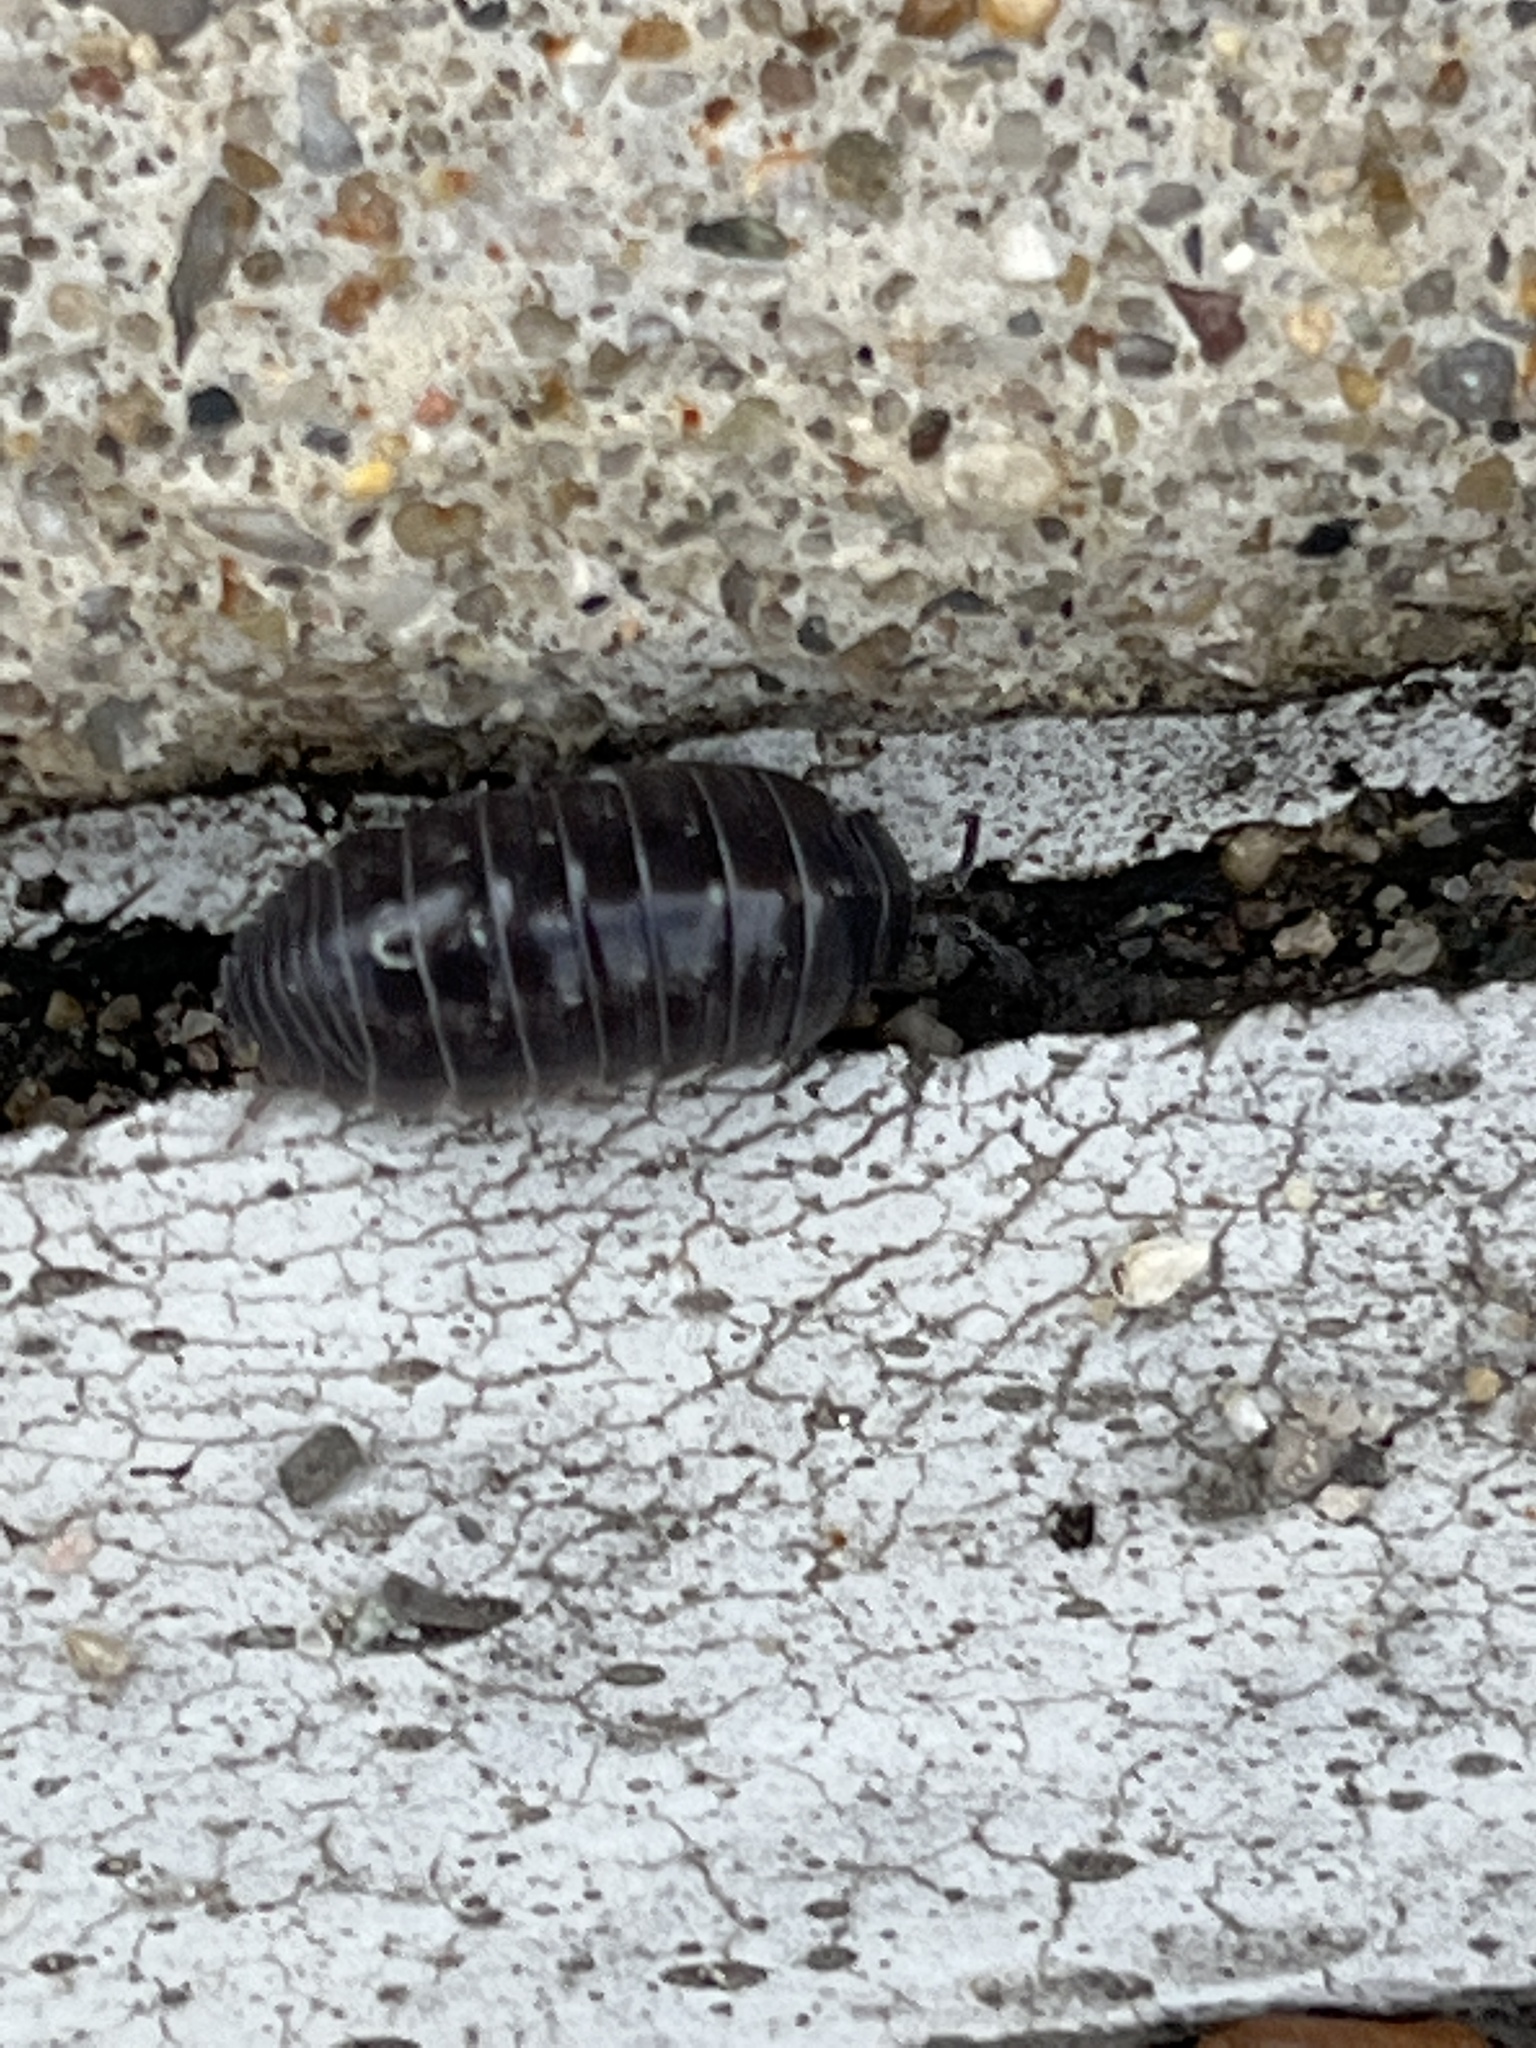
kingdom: Animalia
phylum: Arthropoda
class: Malacostraca
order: Isopoda
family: Armadillidiidae
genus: Armadillidium
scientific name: Armadillidium vulgare
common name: Common pill woodlouse
